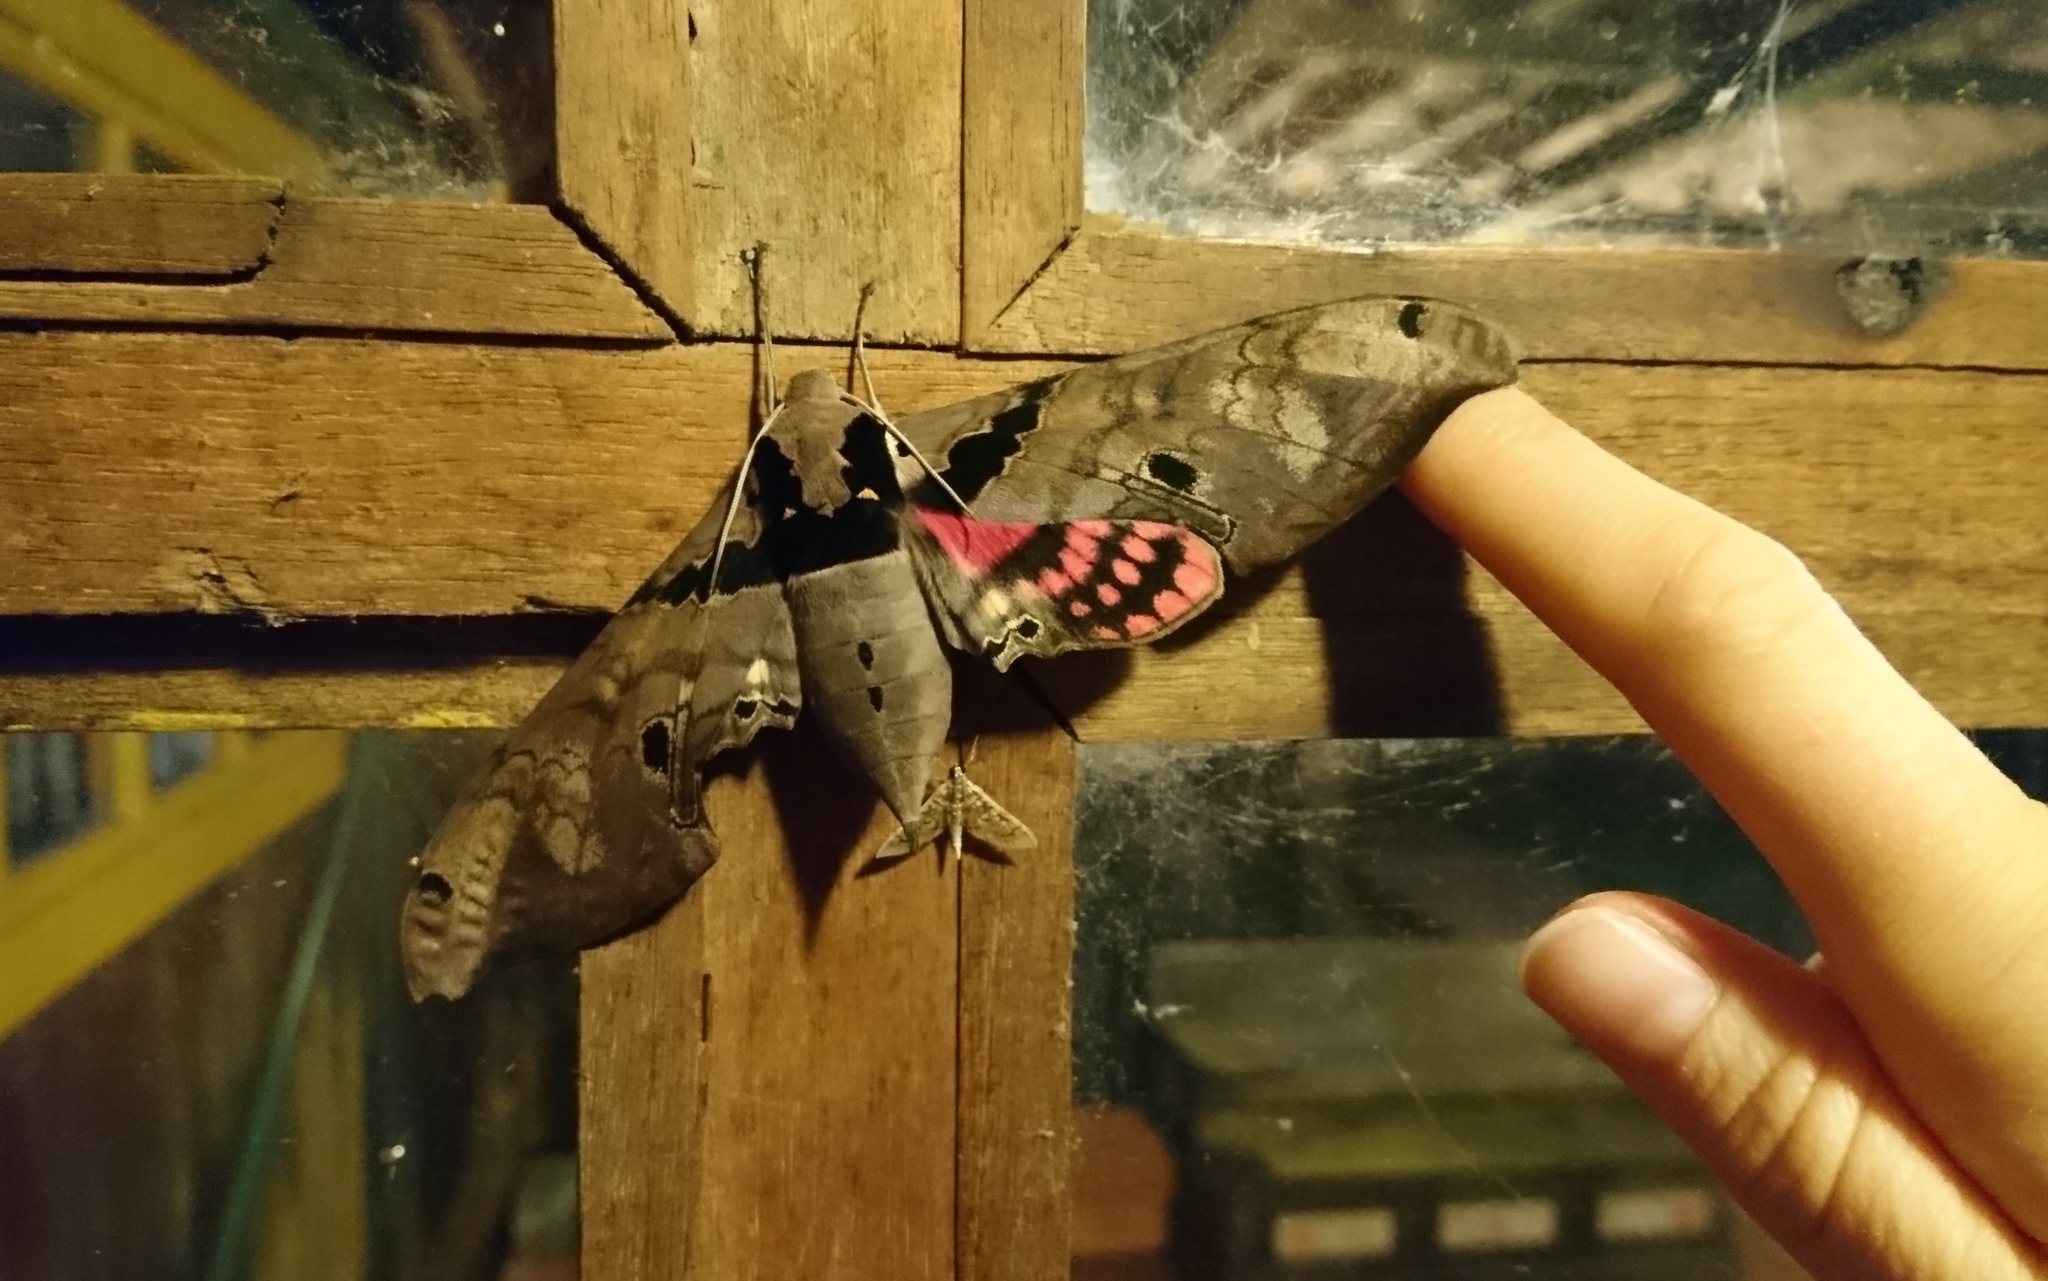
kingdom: Animalia
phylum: Arthropoda
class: Insecta
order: Lepidoptera
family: Sphingidae
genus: Adhemarius
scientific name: Adhemarius gannascus
